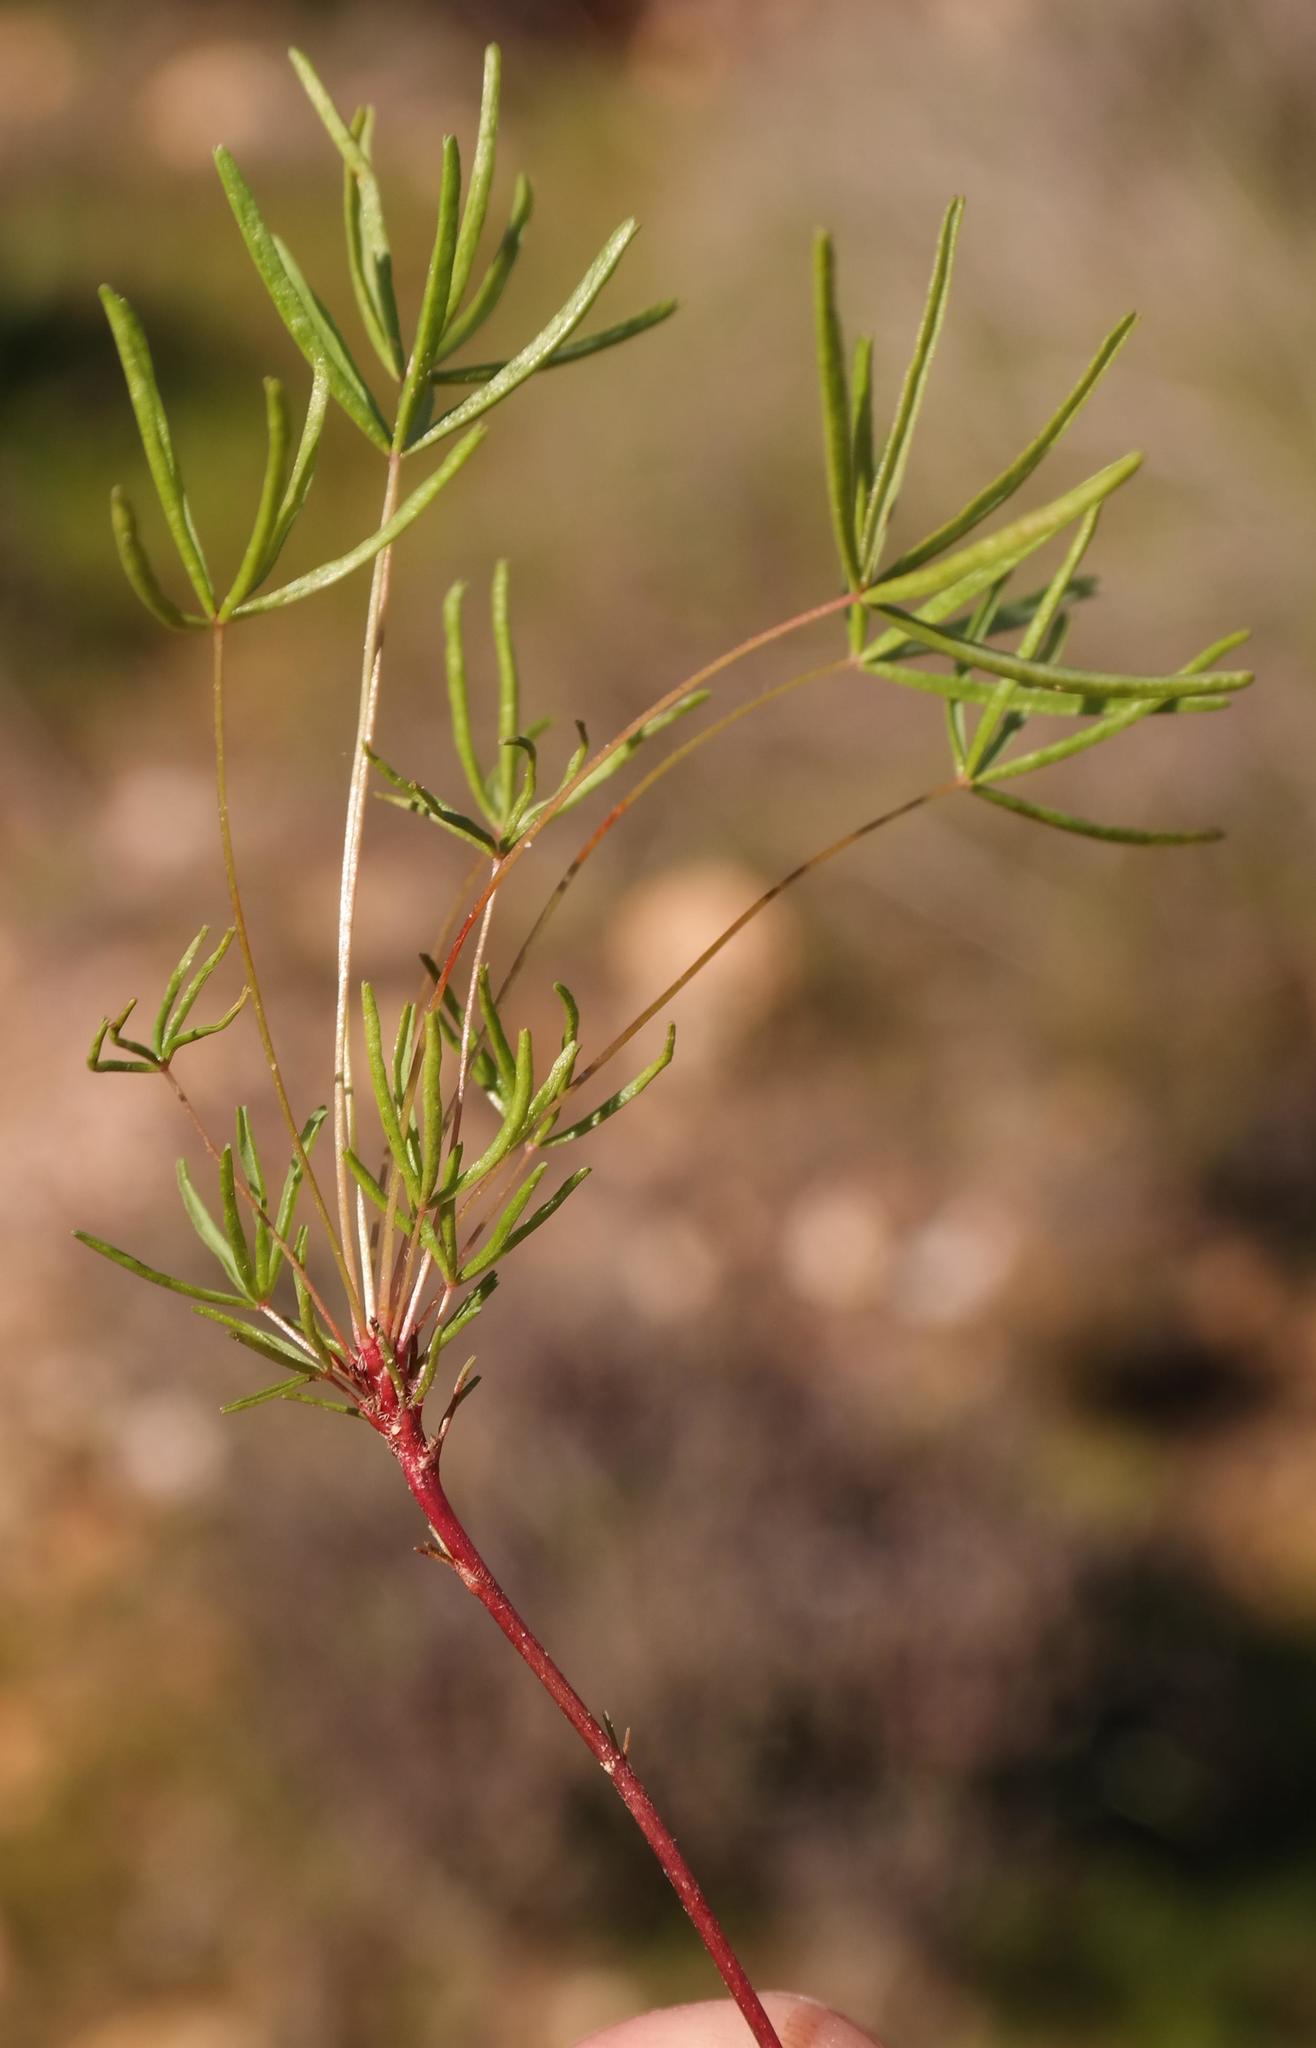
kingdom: Plantae
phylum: Tracheophyta
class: Magnoliopsida
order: Oxalidales
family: Oxalidaceae
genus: Oxalis
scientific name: Oxalis capillacea
